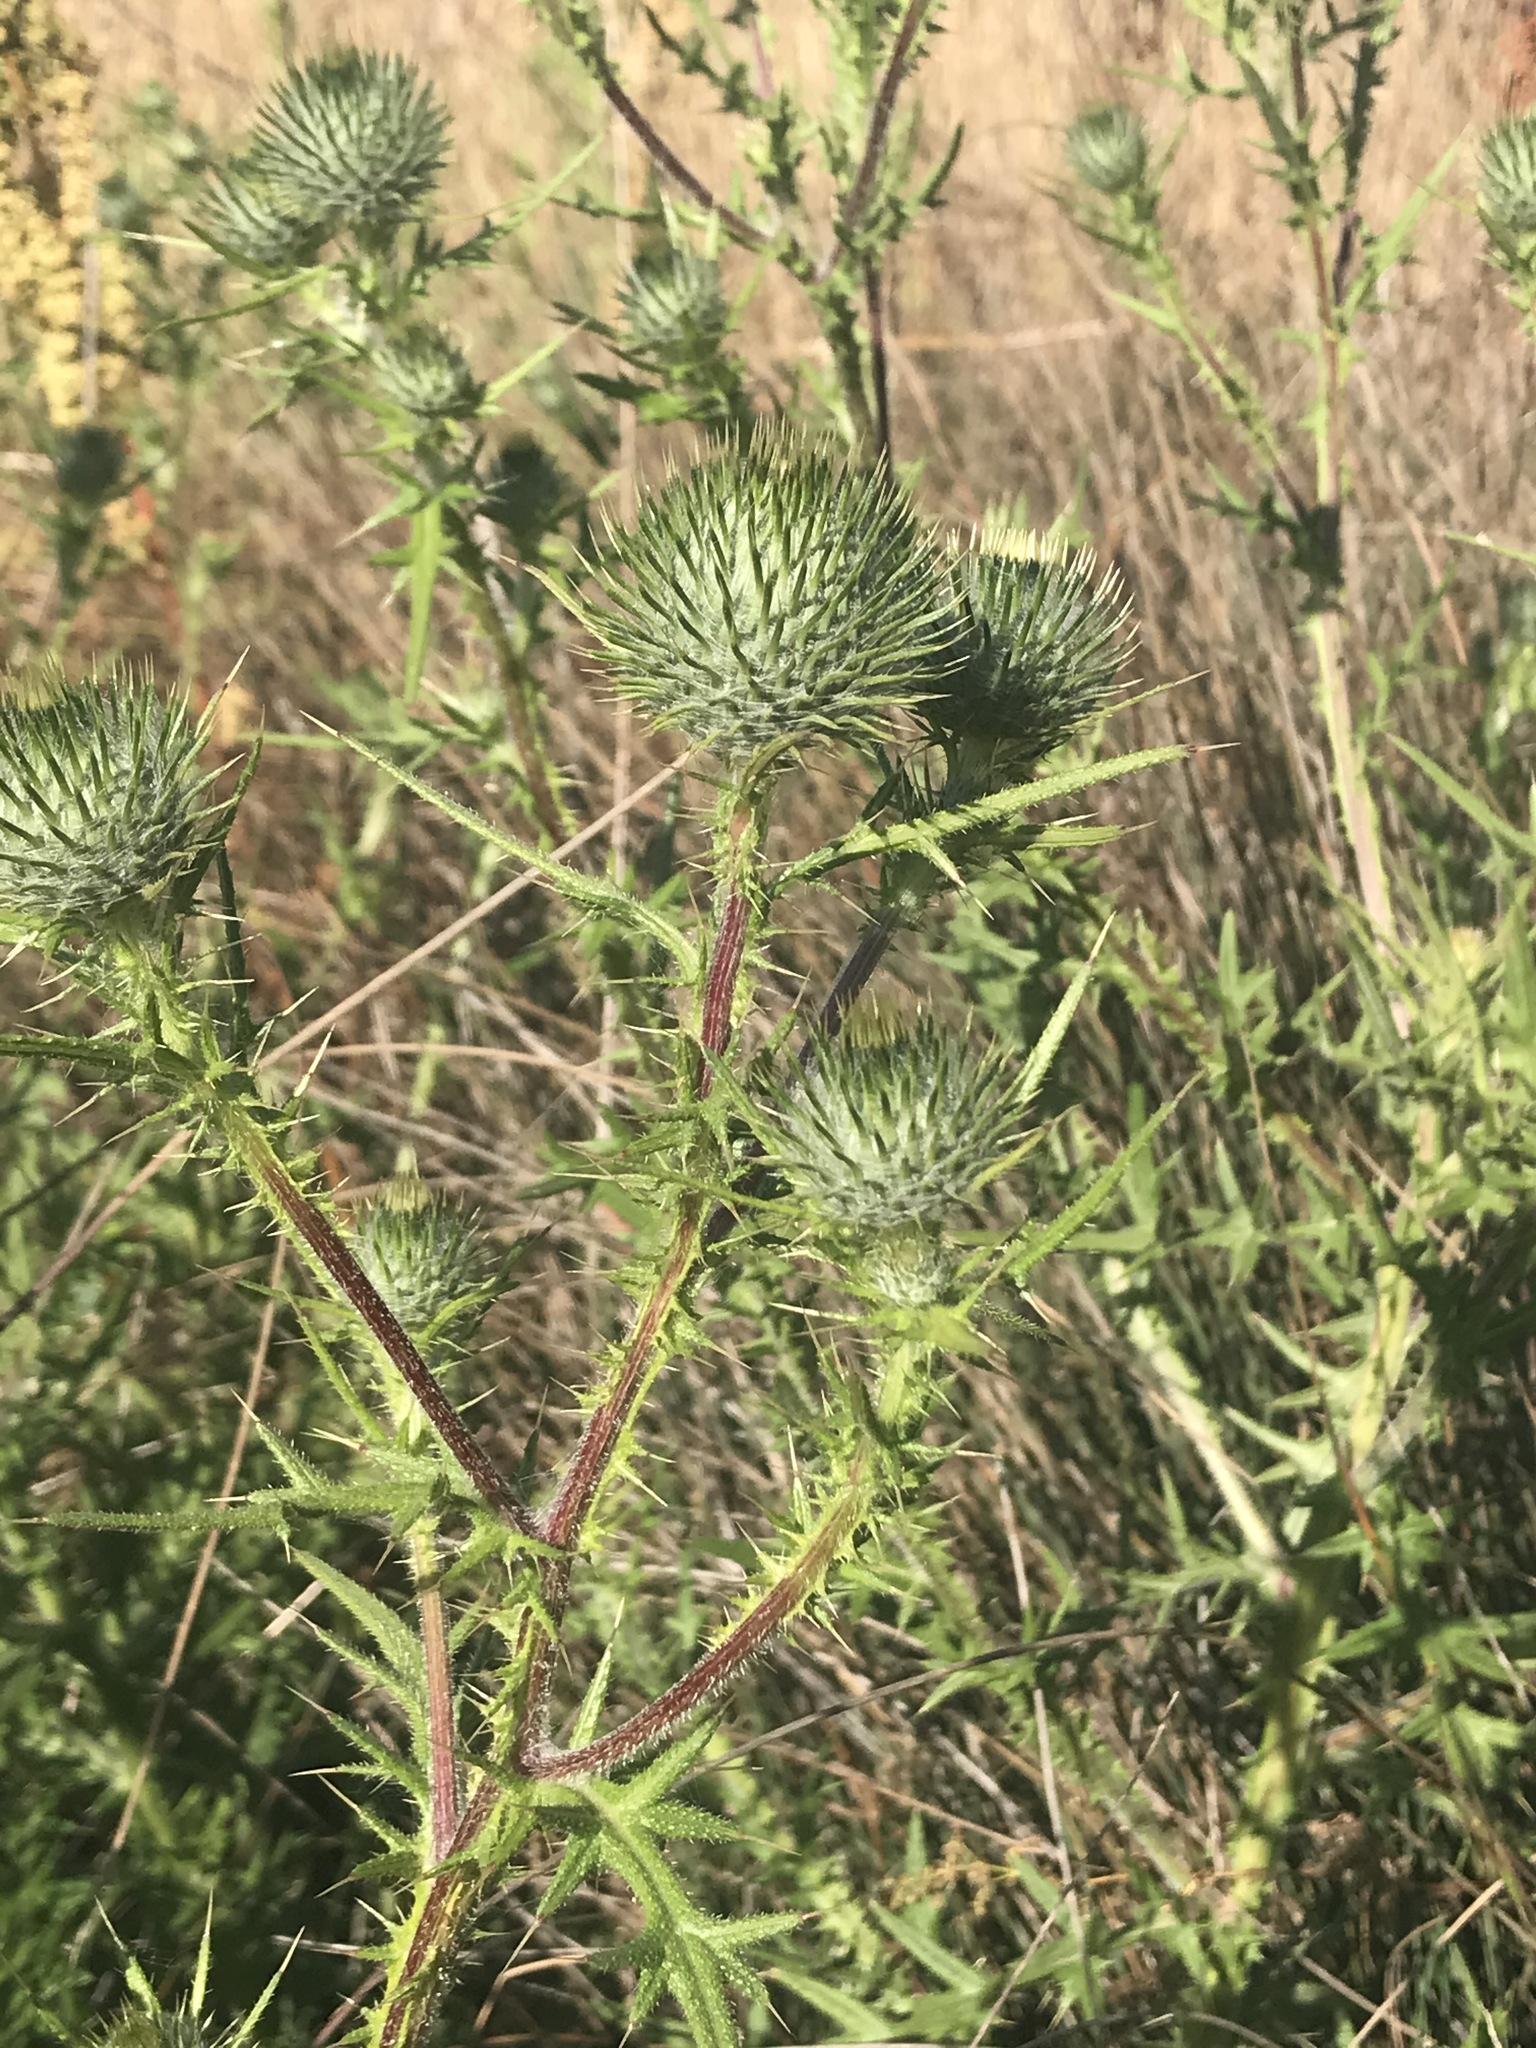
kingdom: Plantae
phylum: Tracheophyta
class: Magnoliopsida
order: Asterales
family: Asteraceae
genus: Cirsium
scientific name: Cirsium vulgare
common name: Bull thistle
